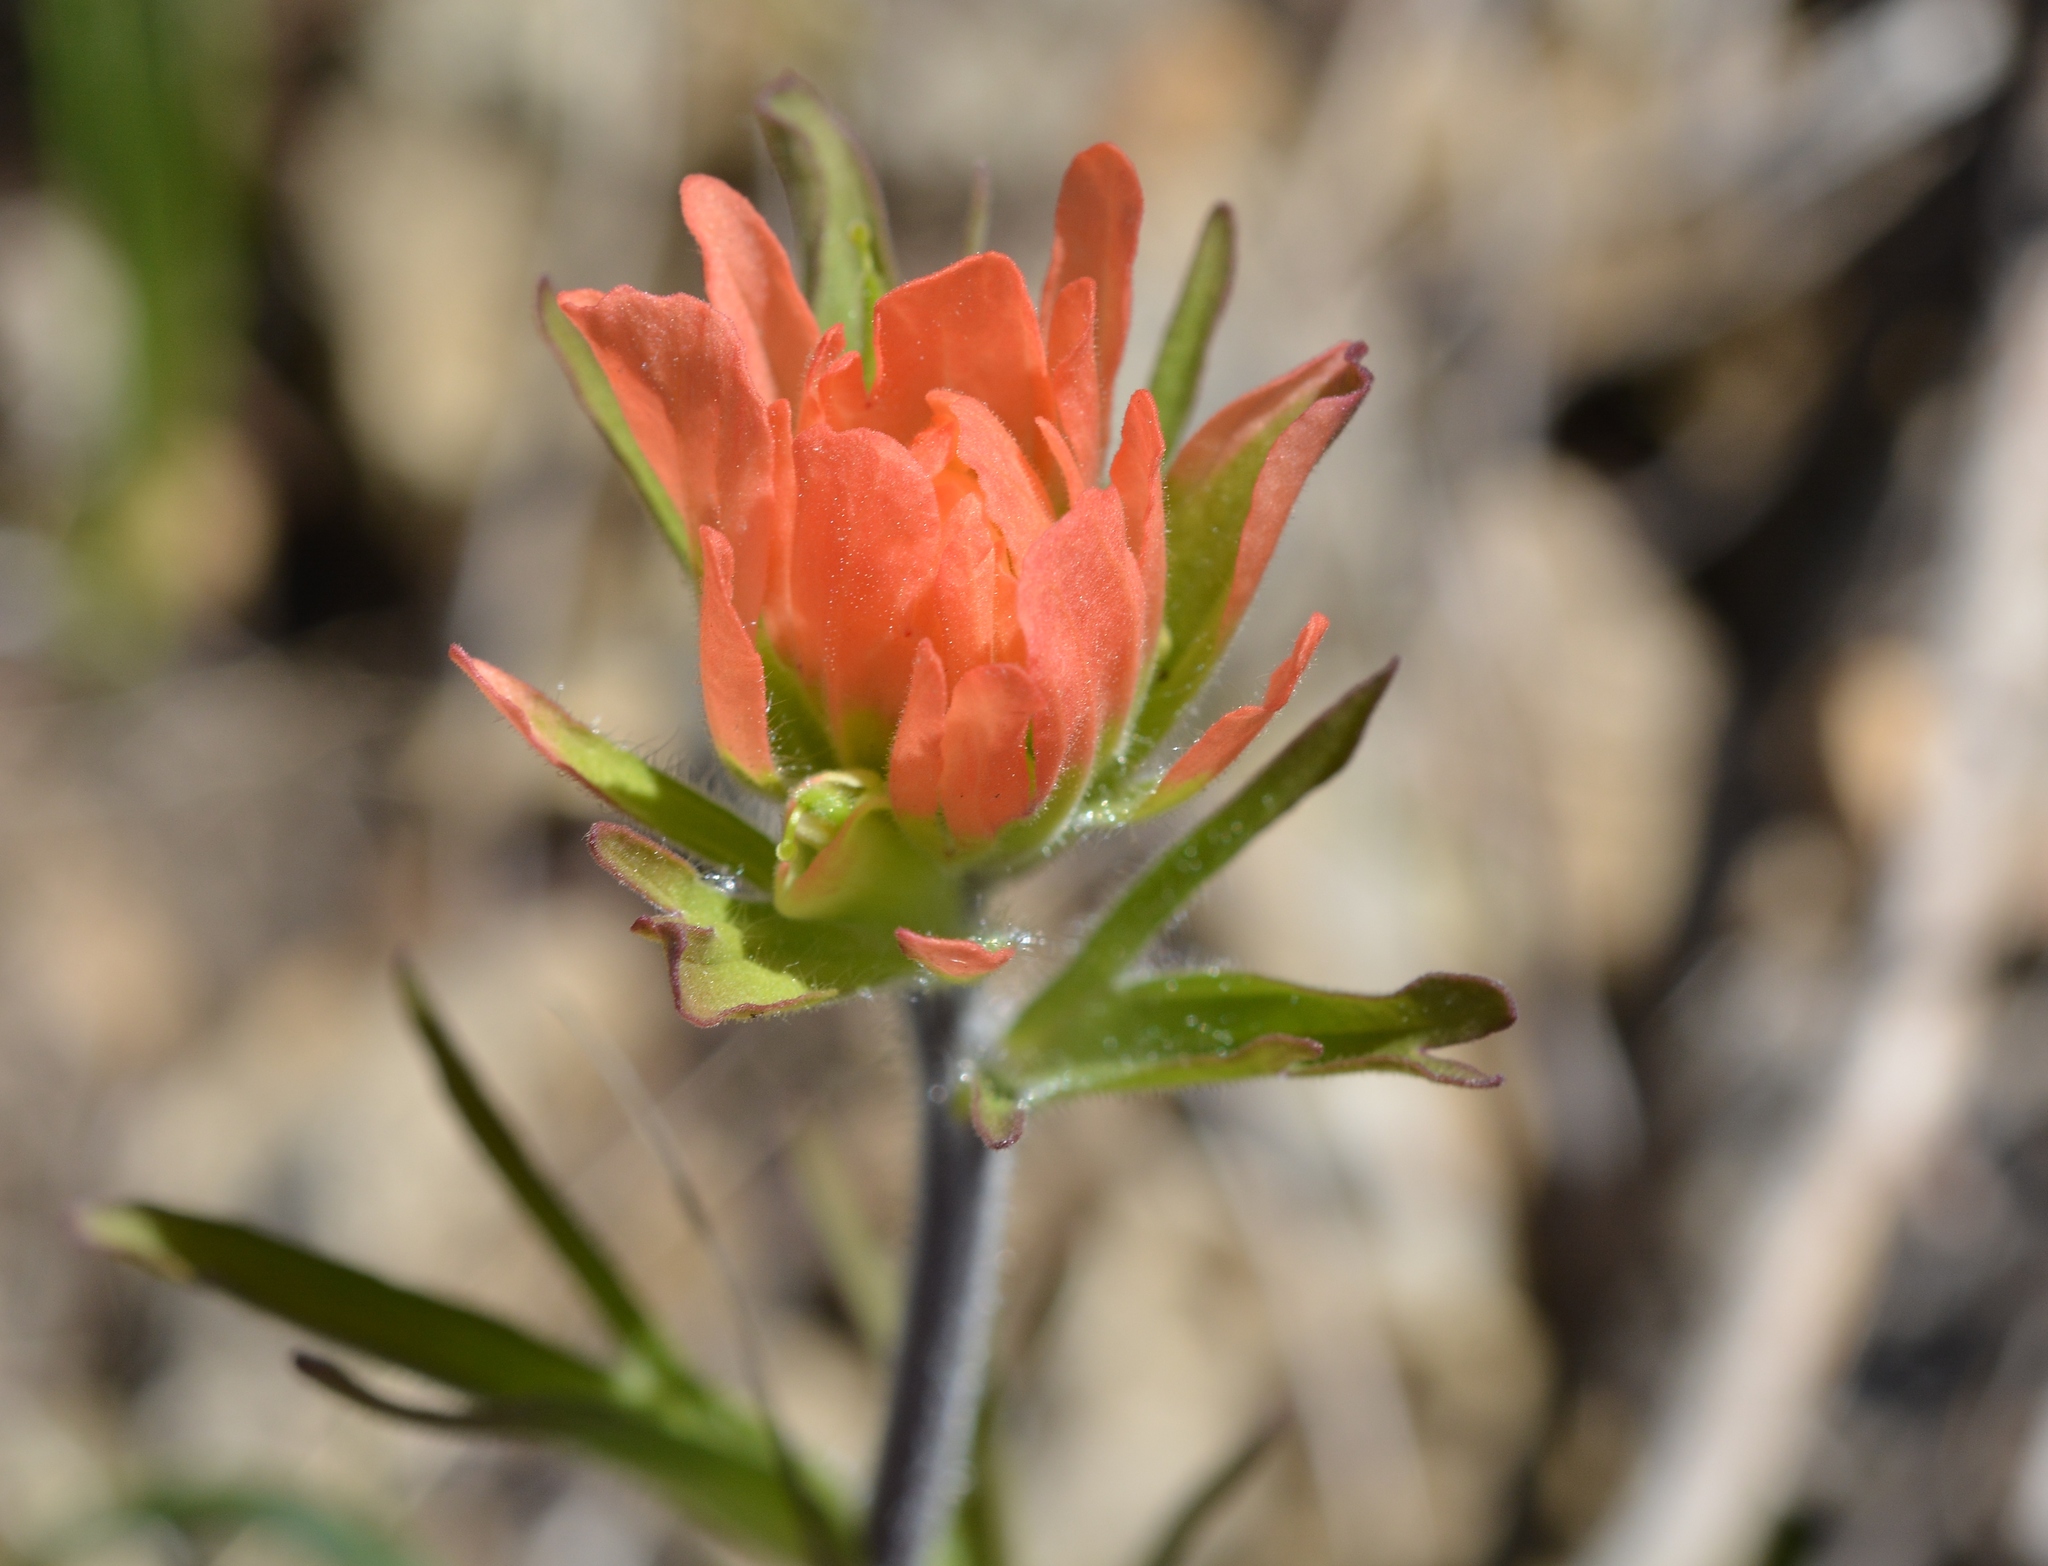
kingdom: Plantae
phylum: Tracheophyta
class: Magnoliopsida
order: Lamiales
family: Orobanchaceae
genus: Castilleja
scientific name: Castilleja coccinea
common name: Scarlet paintbrush
